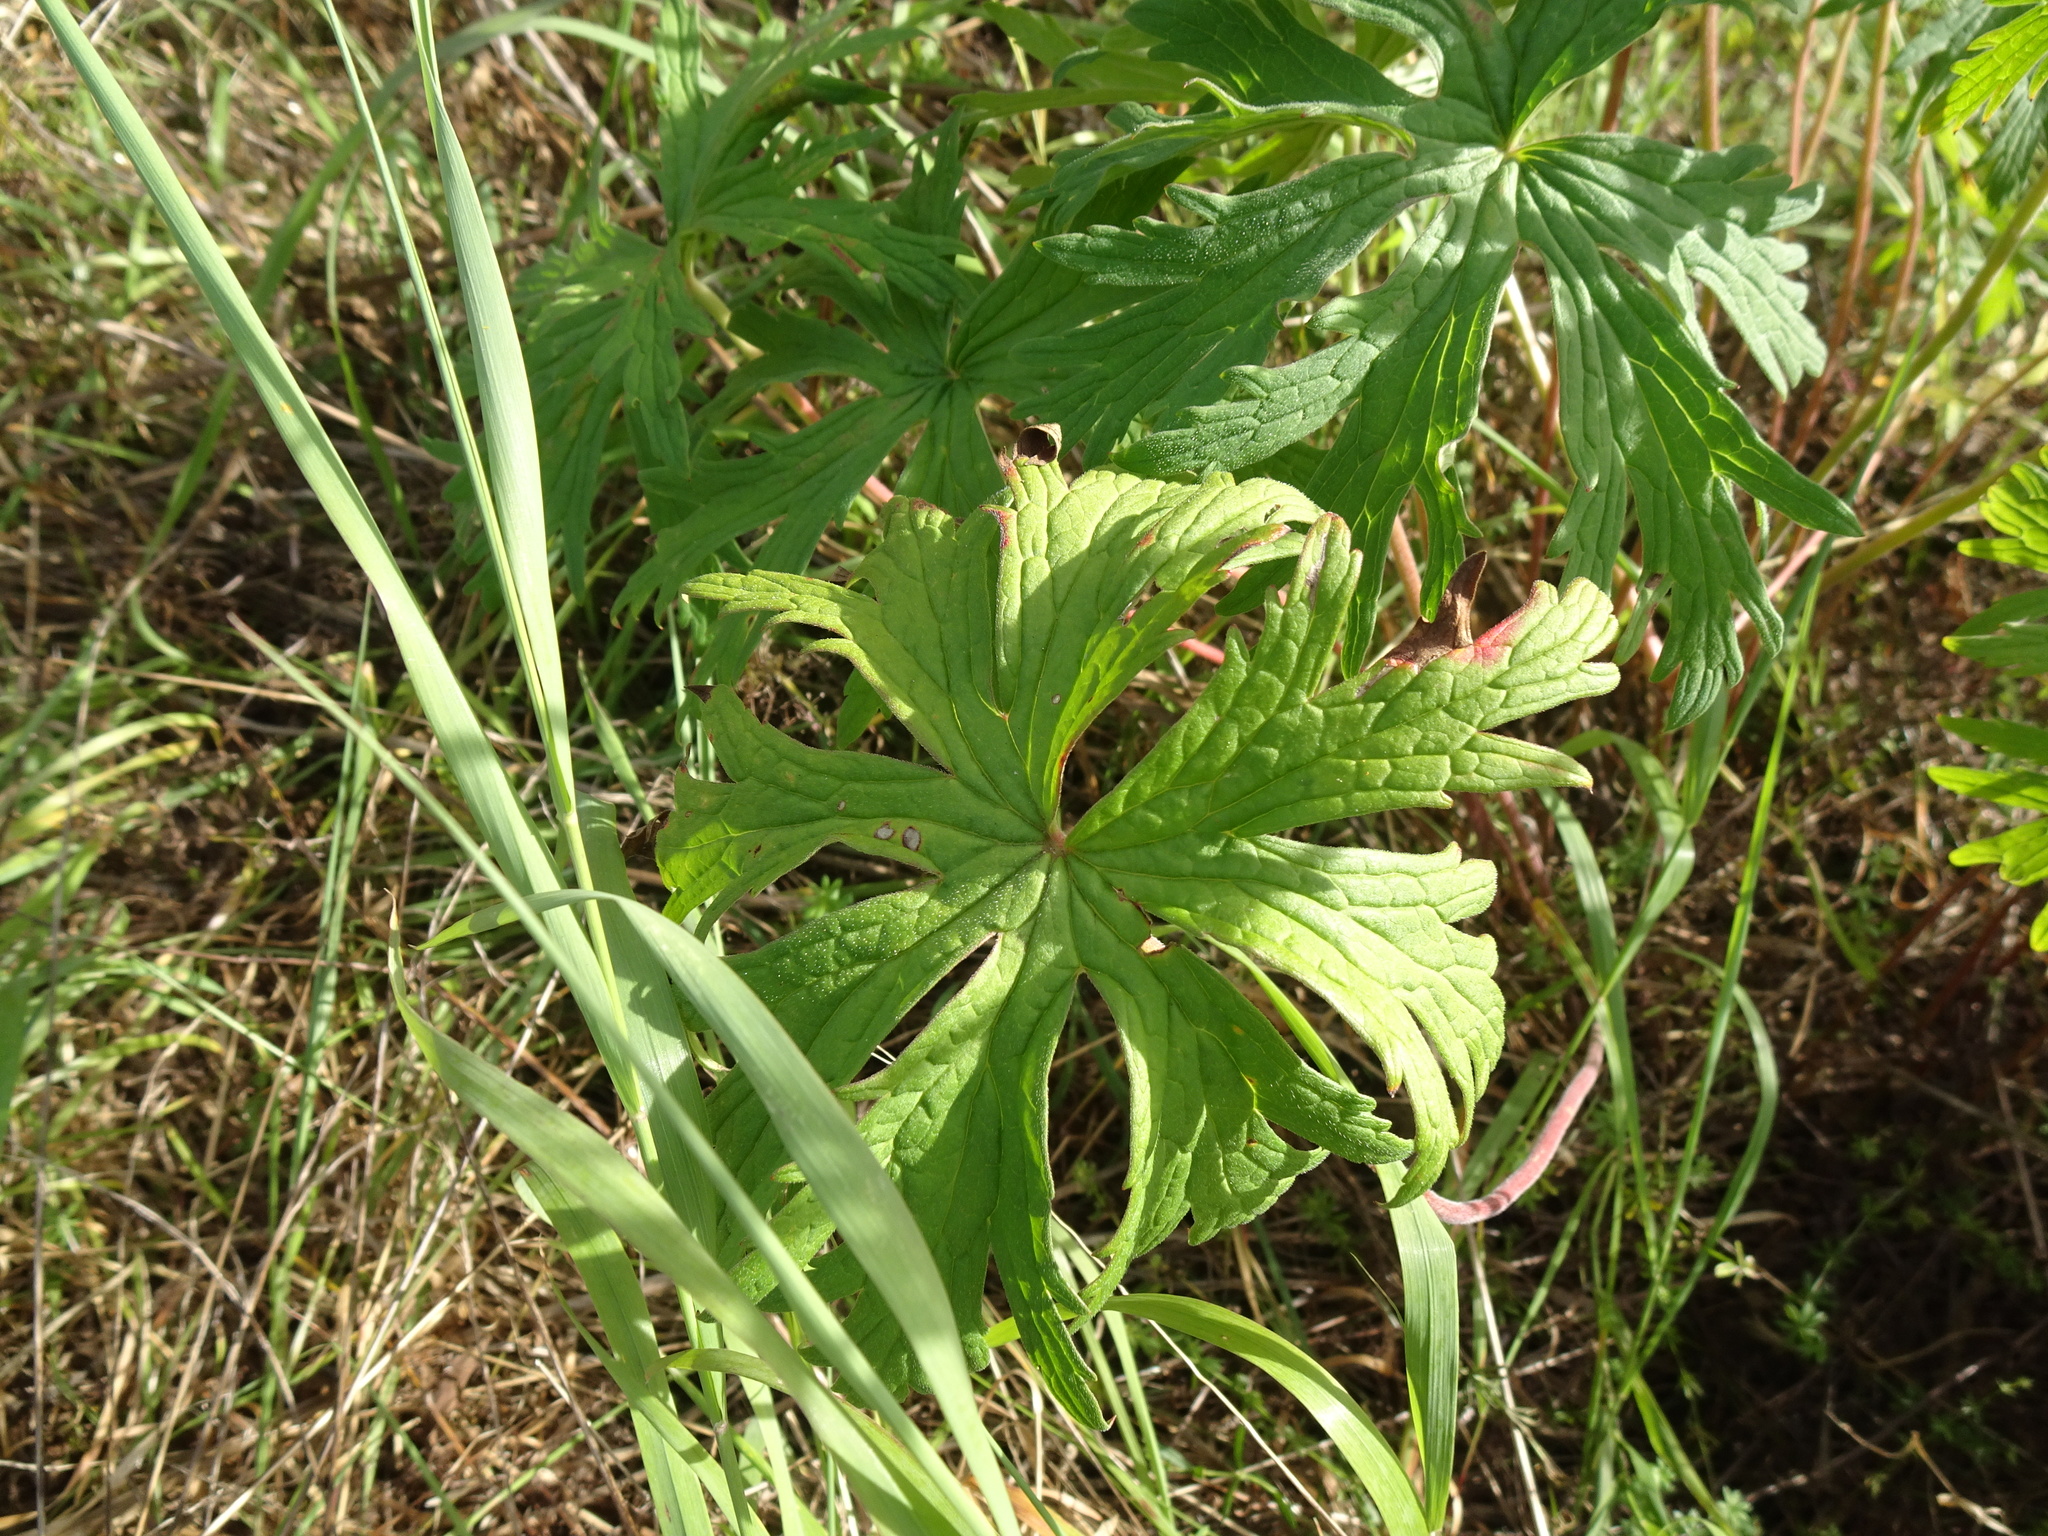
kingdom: Plantae
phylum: Tracheophyta
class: Magnoliopsida
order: Geraniales
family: Geraniaceae
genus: Geranium
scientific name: Geranium pratense
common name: Meadow crane's-bill
